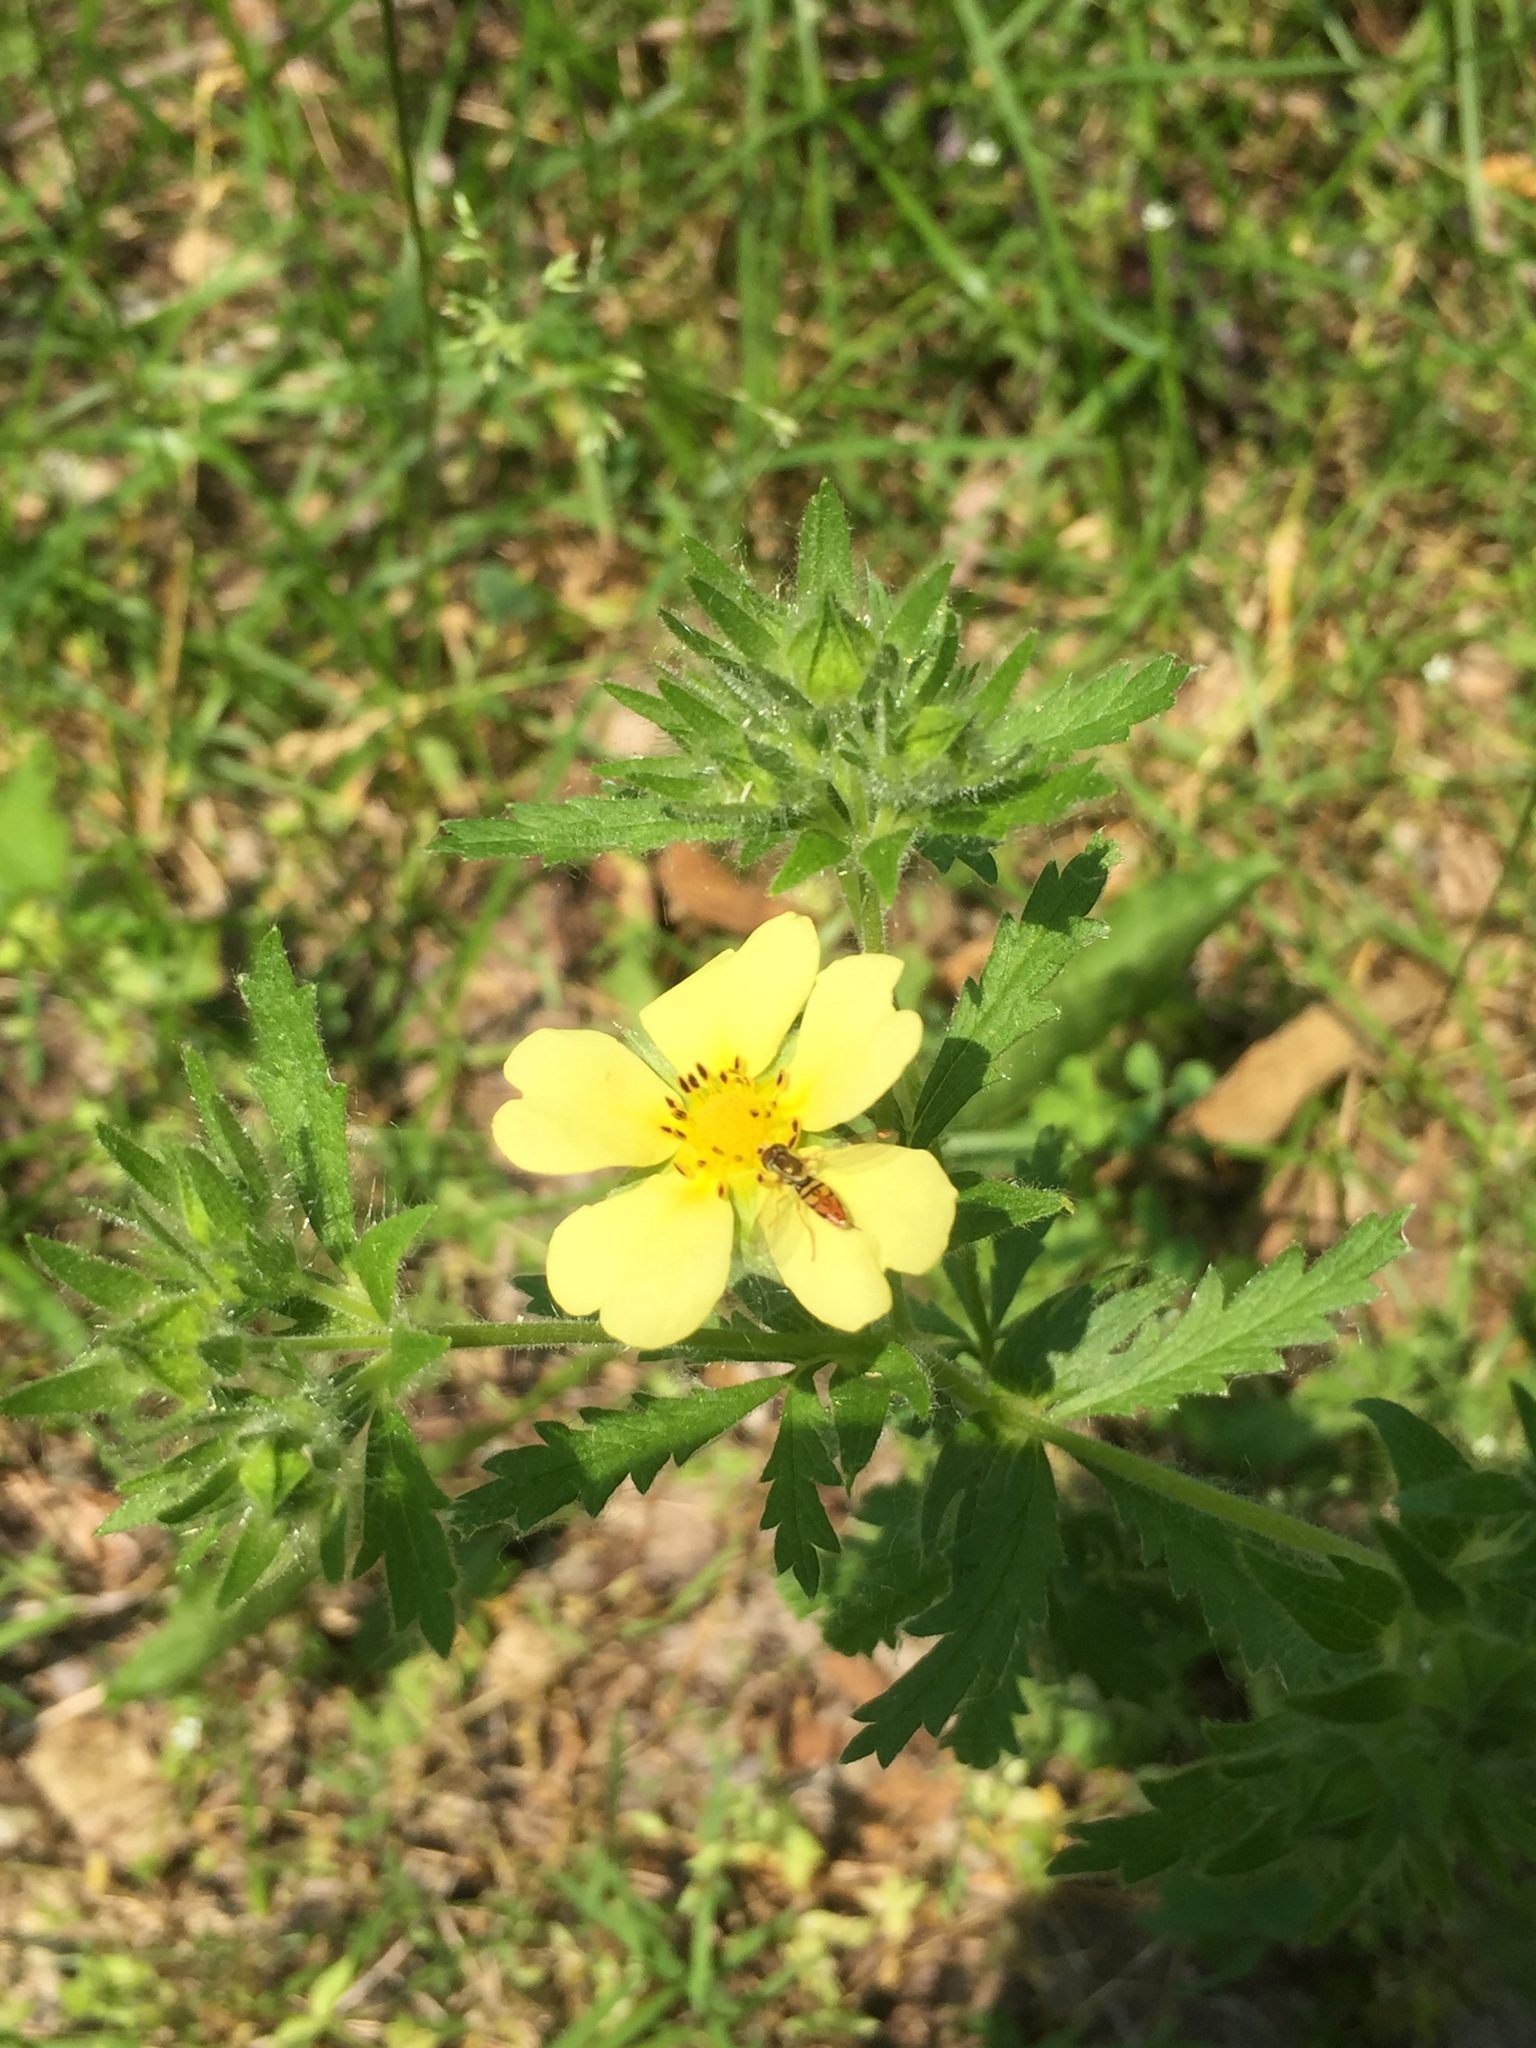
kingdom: Plantae
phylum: Tracheophyta
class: Magnoliopsida
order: Rosales
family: Rosaceae
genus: Potentilla
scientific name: Potentilla recta
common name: Sulphur cinquefoil
